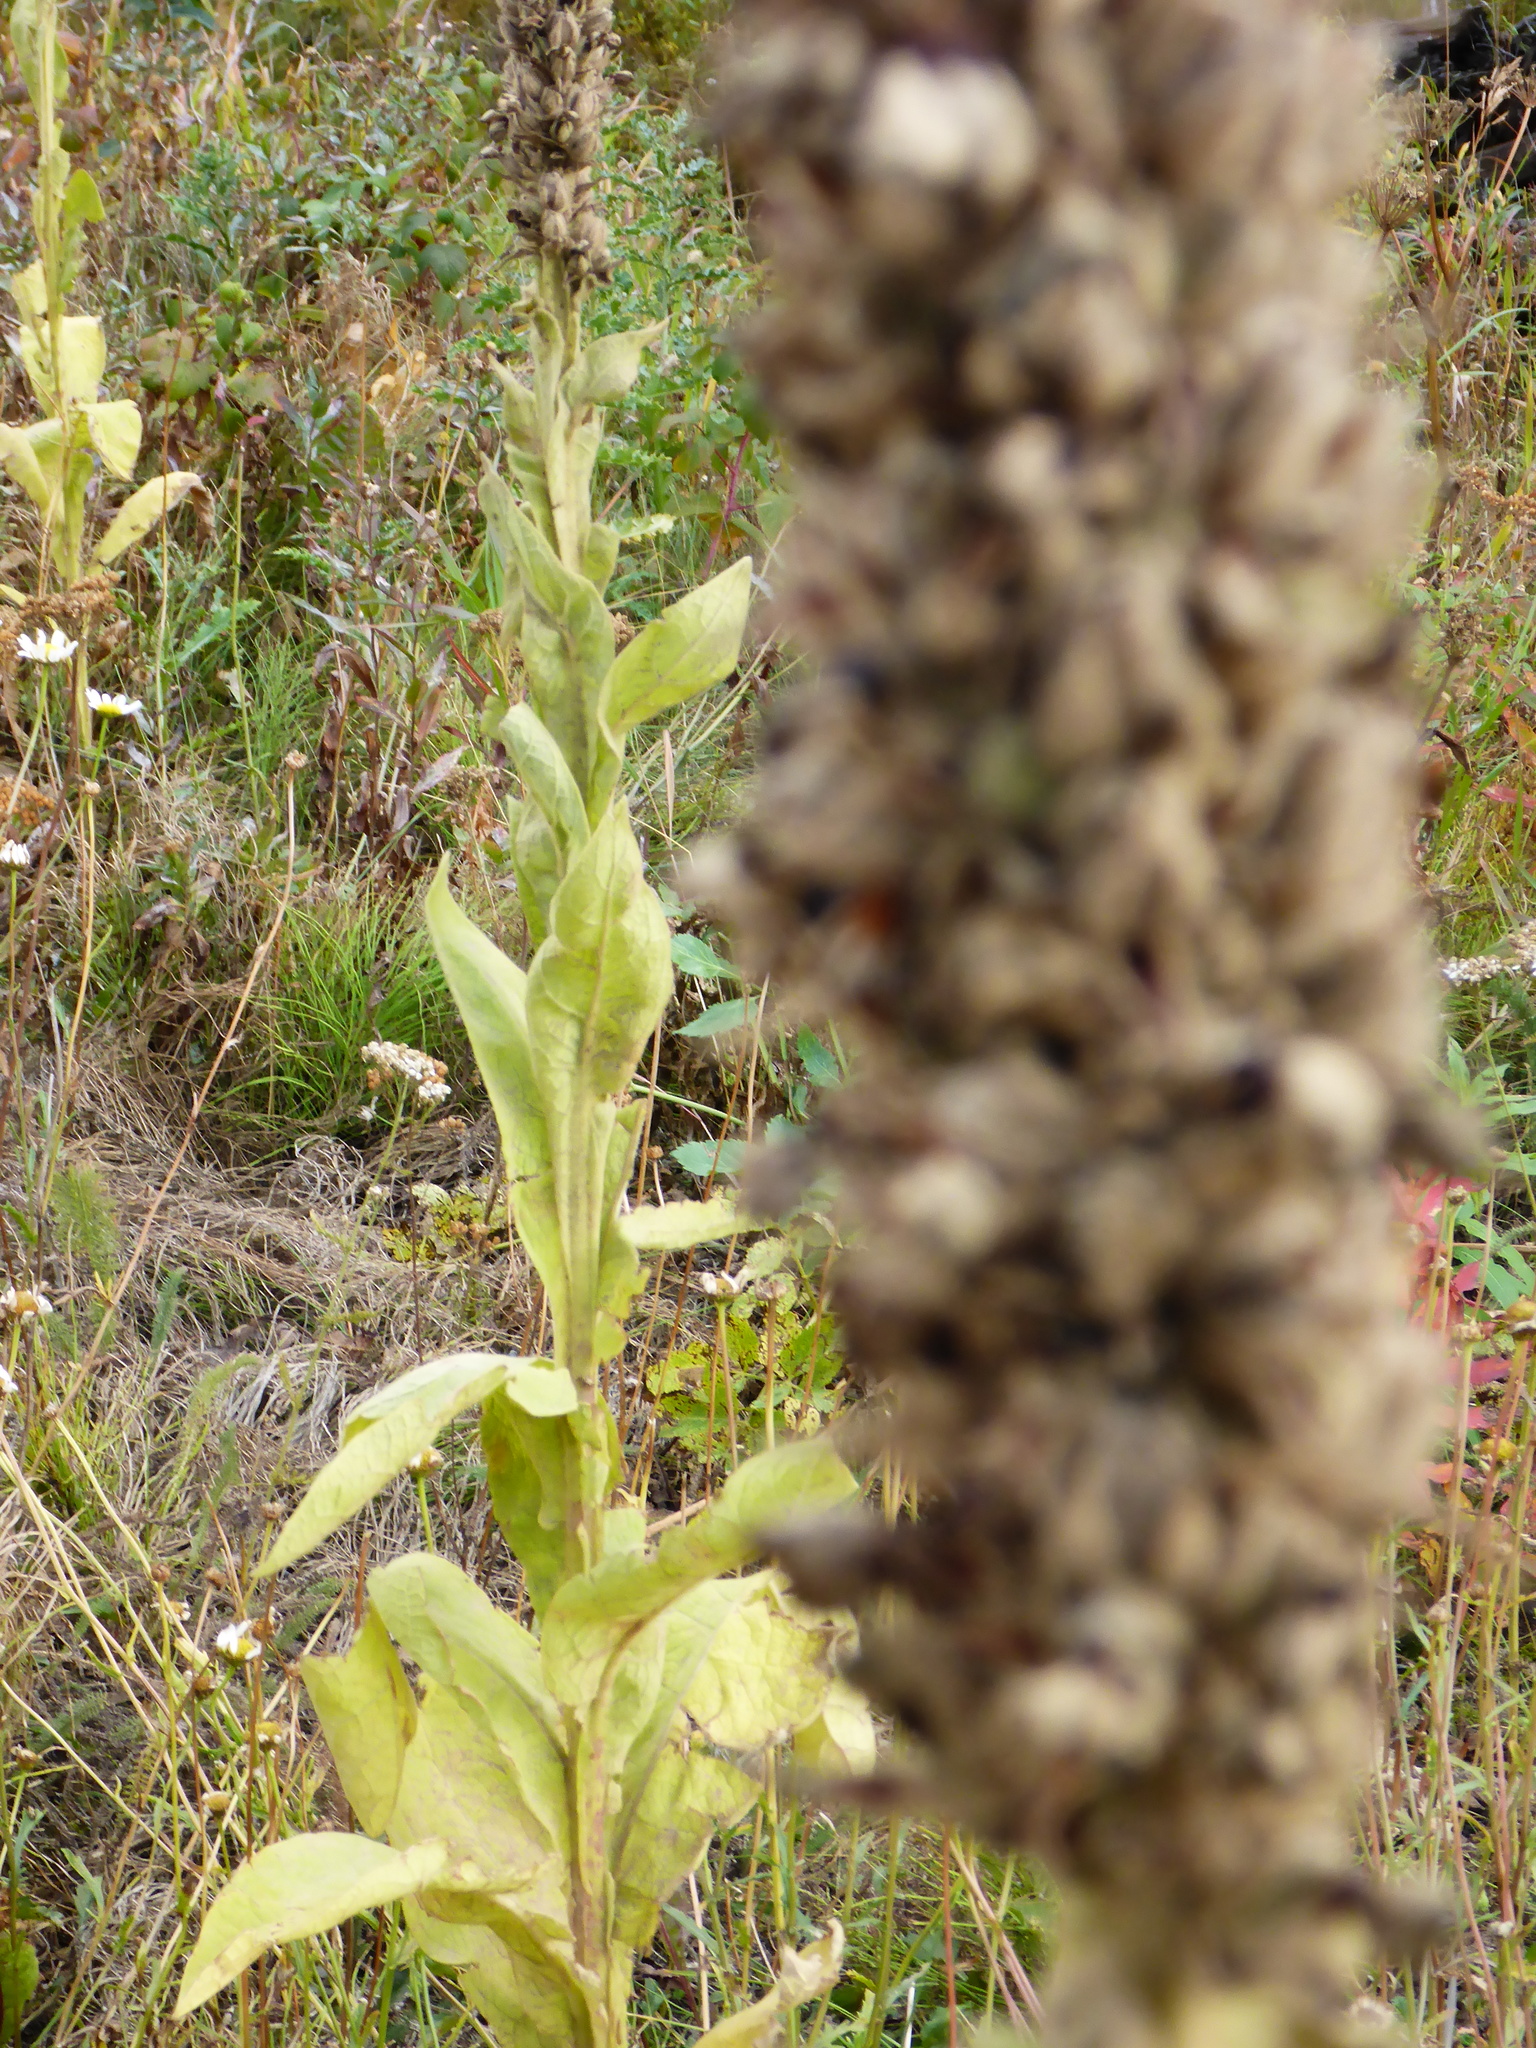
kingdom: Plantae
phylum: Tracheophyta
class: Magnoliopsida
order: Lamiales
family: Scrophulariaceae
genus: Verbascum
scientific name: Verbascum thapsus
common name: Common mullein
